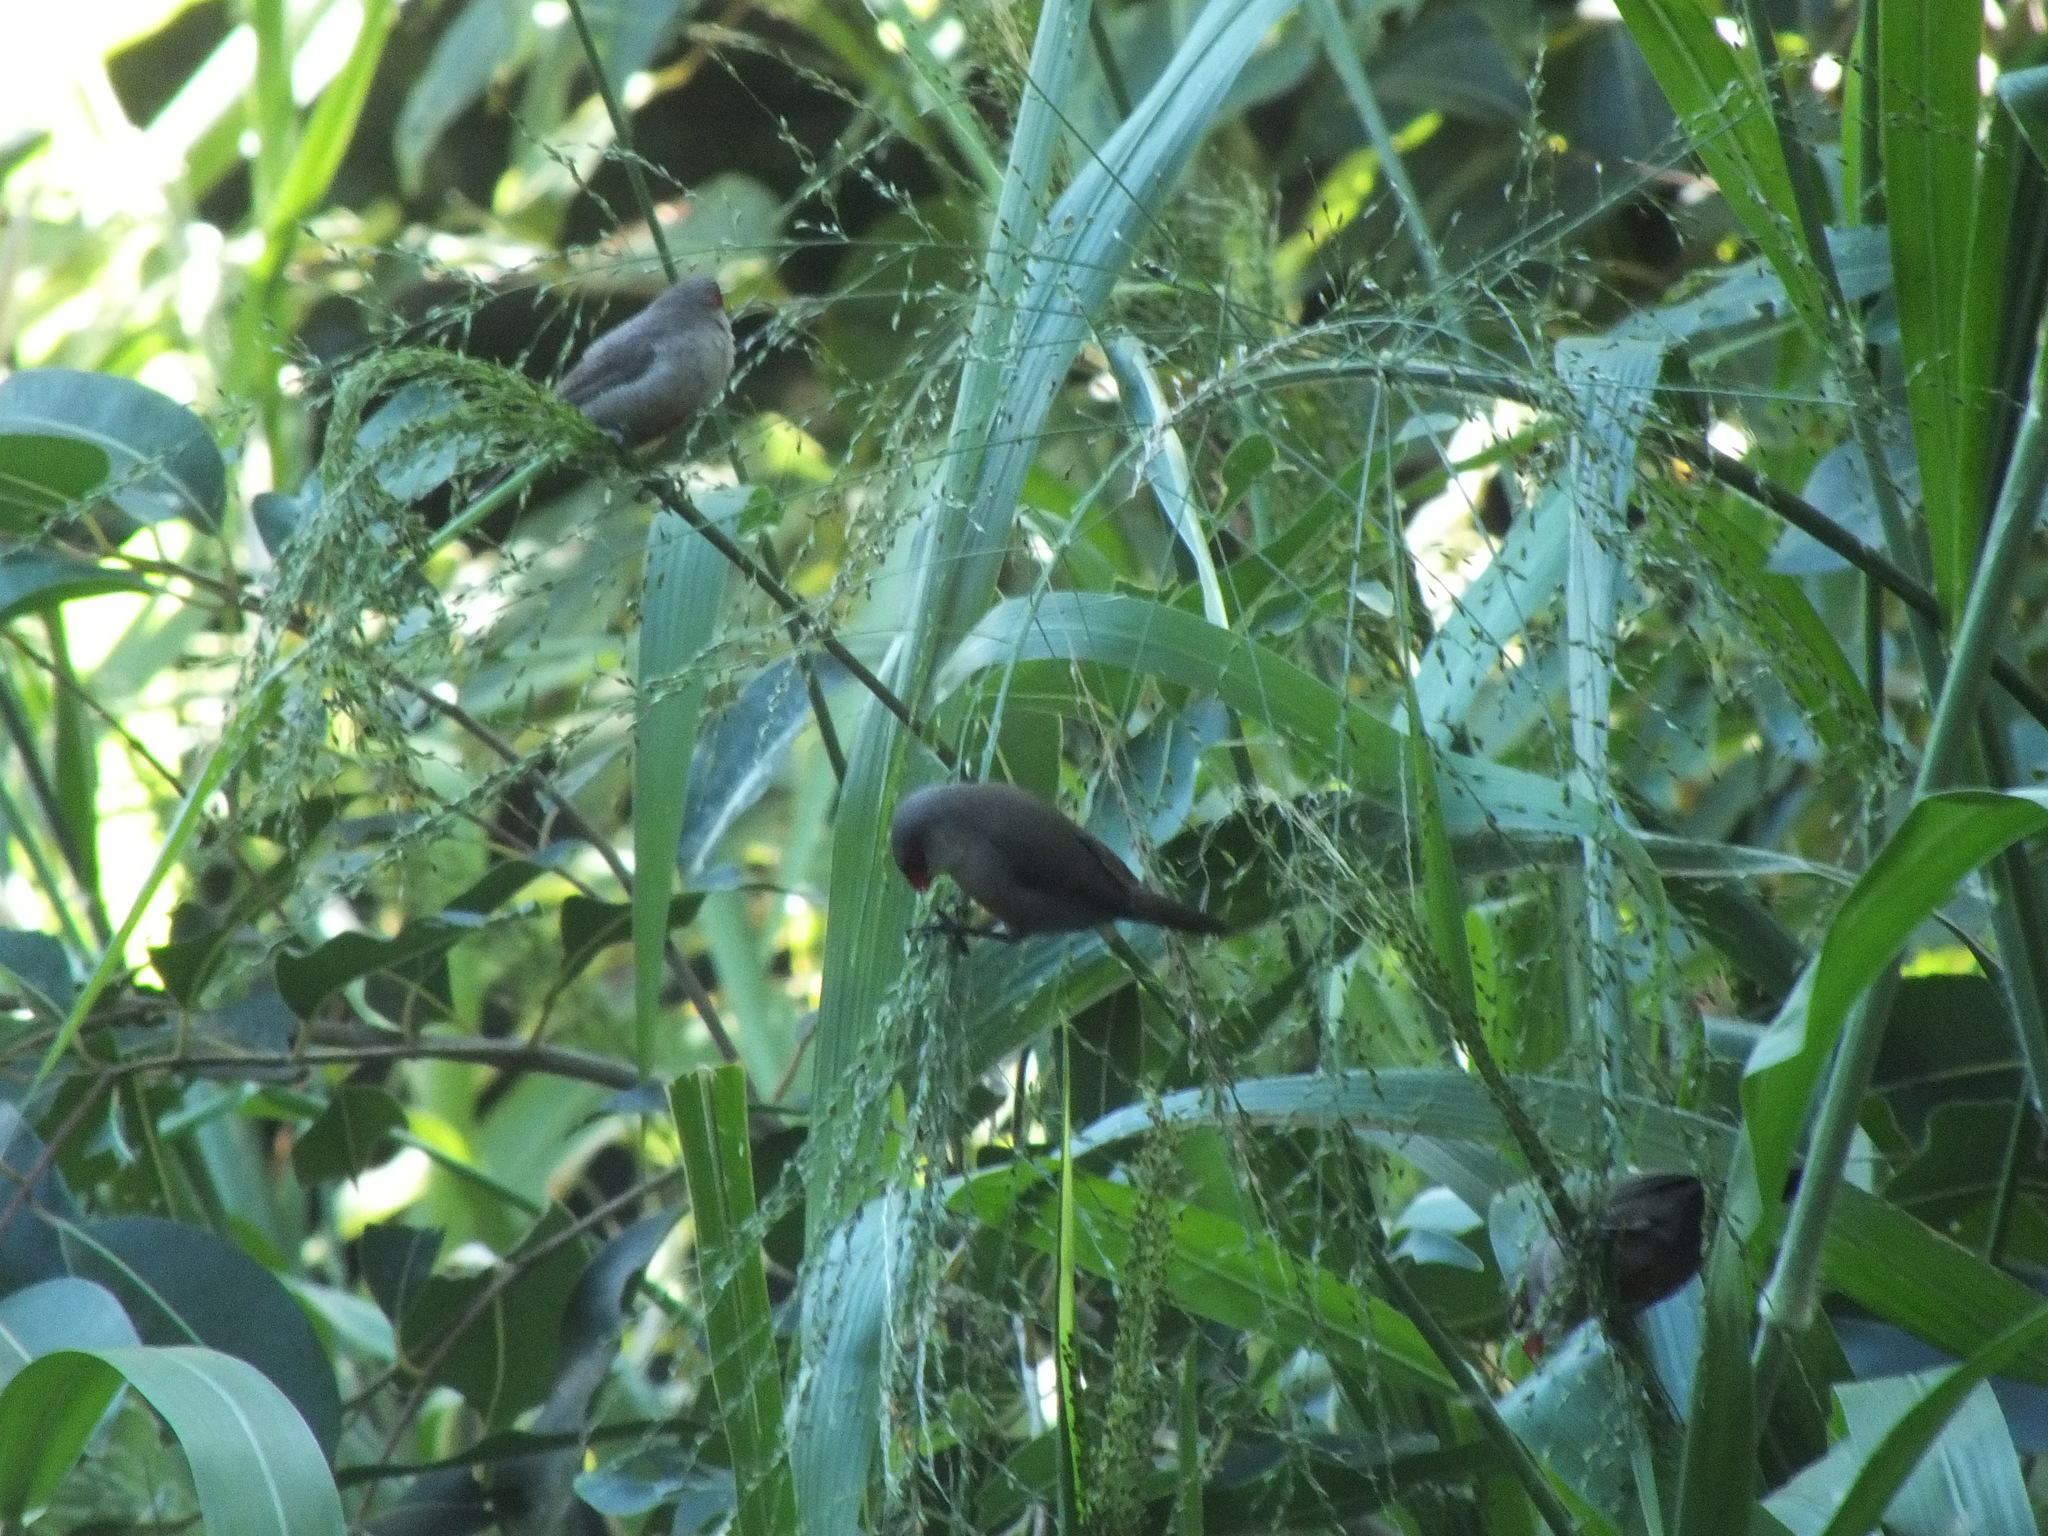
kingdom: Animalia
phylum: Chordata
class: Aves
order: Passeriformes
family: Estrildidae
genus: Estrilda
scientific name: Estrilda astrild
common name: Common waxbill
